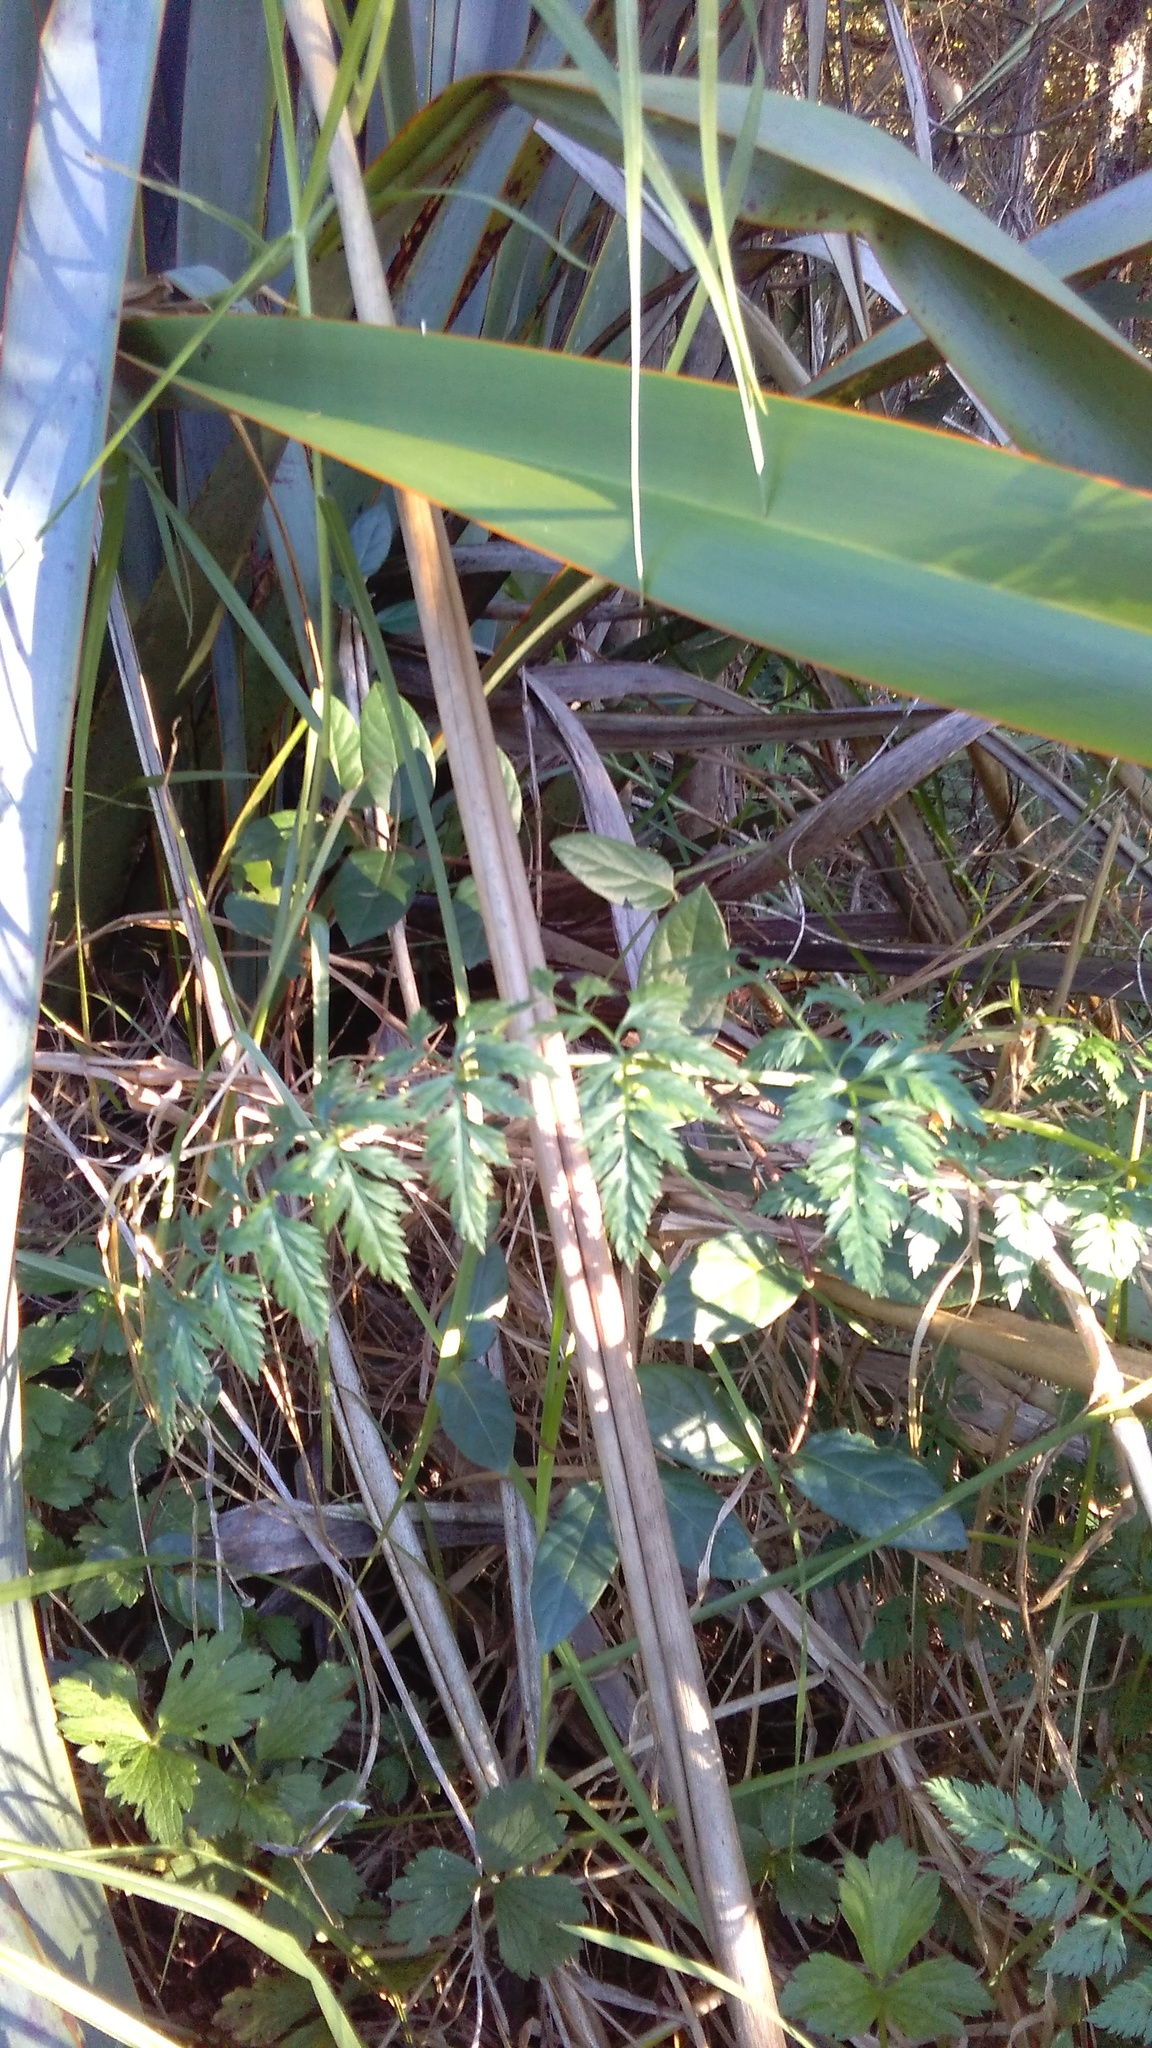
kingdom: Plantae
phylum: Tracheophyta
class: Magnoliopsida
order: Dipsacales
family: Caprifoliaceae
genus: Lonicera
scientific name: Lonicera japonica
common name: Japanese honeysuckle
